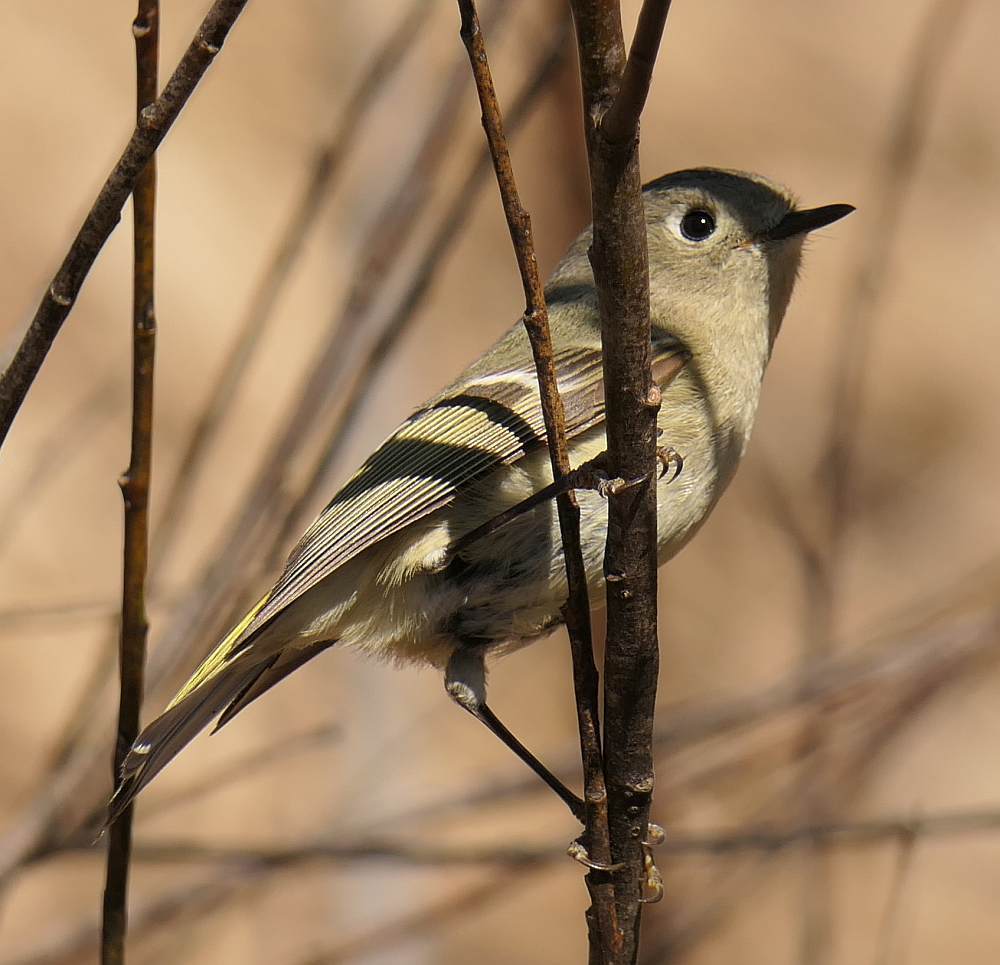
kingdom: Animalia
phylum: Chordata
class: Aves
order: Passeriformes
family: Regulidae
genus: Regulus
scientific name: Regulus calendula
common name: Ruby-crowned kinglet
